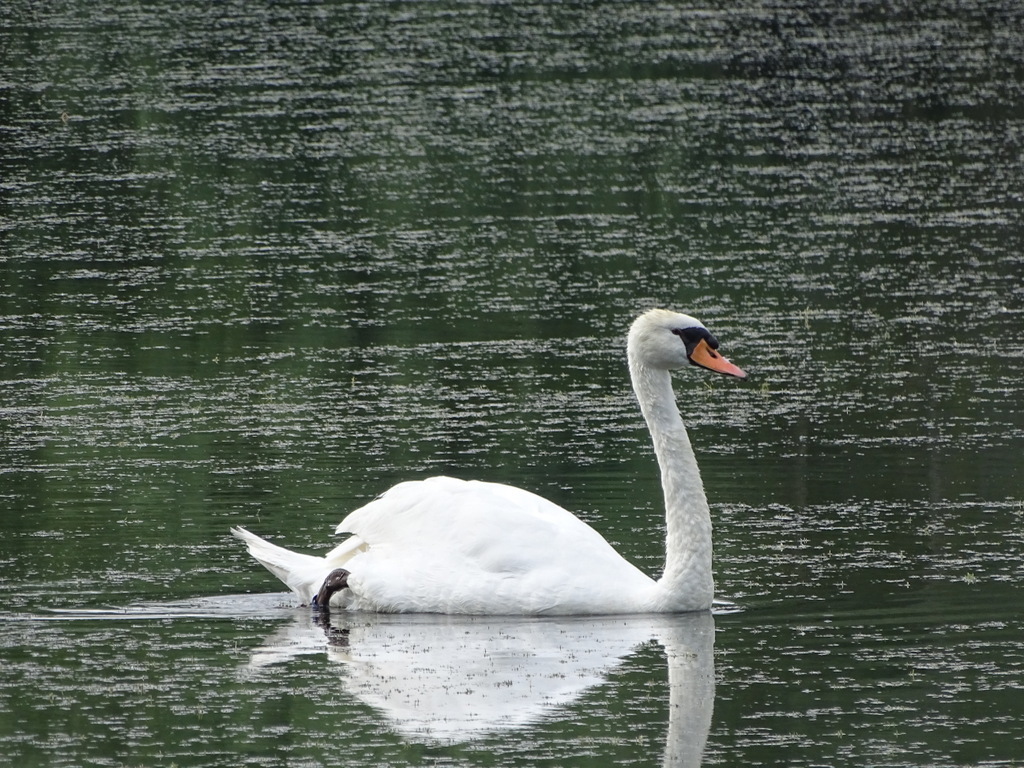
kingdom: Animalia
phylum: Chordata
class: Aves
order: Anseriformes
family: Anatidae
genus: Cygnus
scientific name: Cygnus olor
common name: Mute swan
